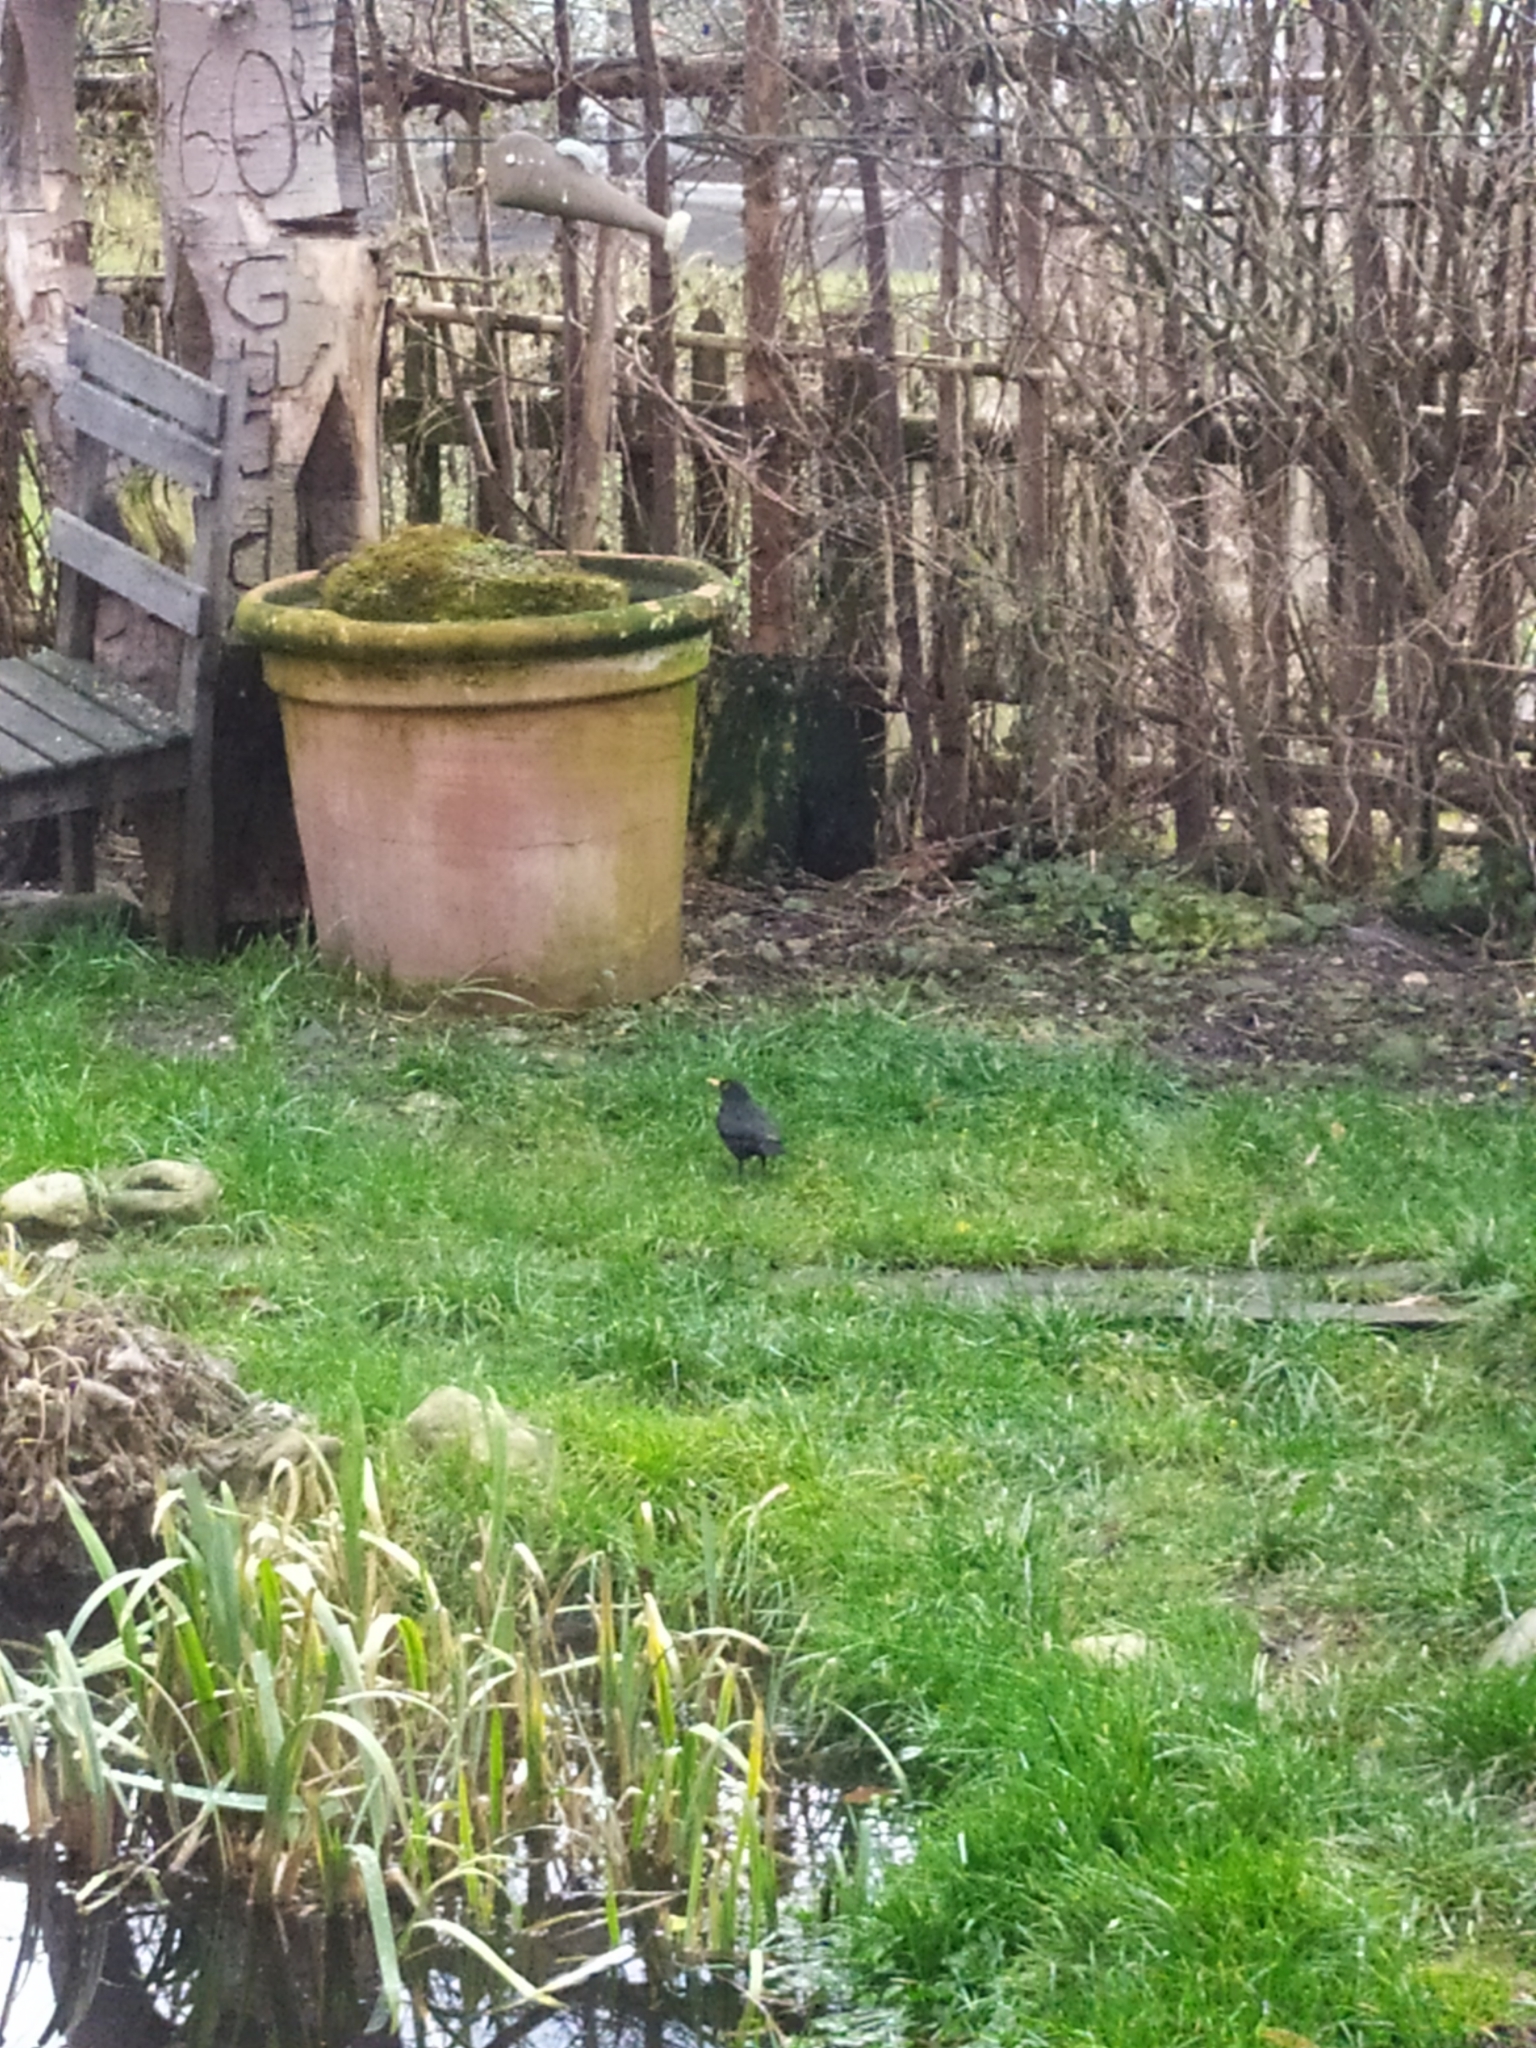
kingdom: Animalia
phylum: Chordata
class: Aves
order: Passeriformes
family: Turdidae
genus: Turdus
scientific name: Turdus merula
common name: Common blackbird
